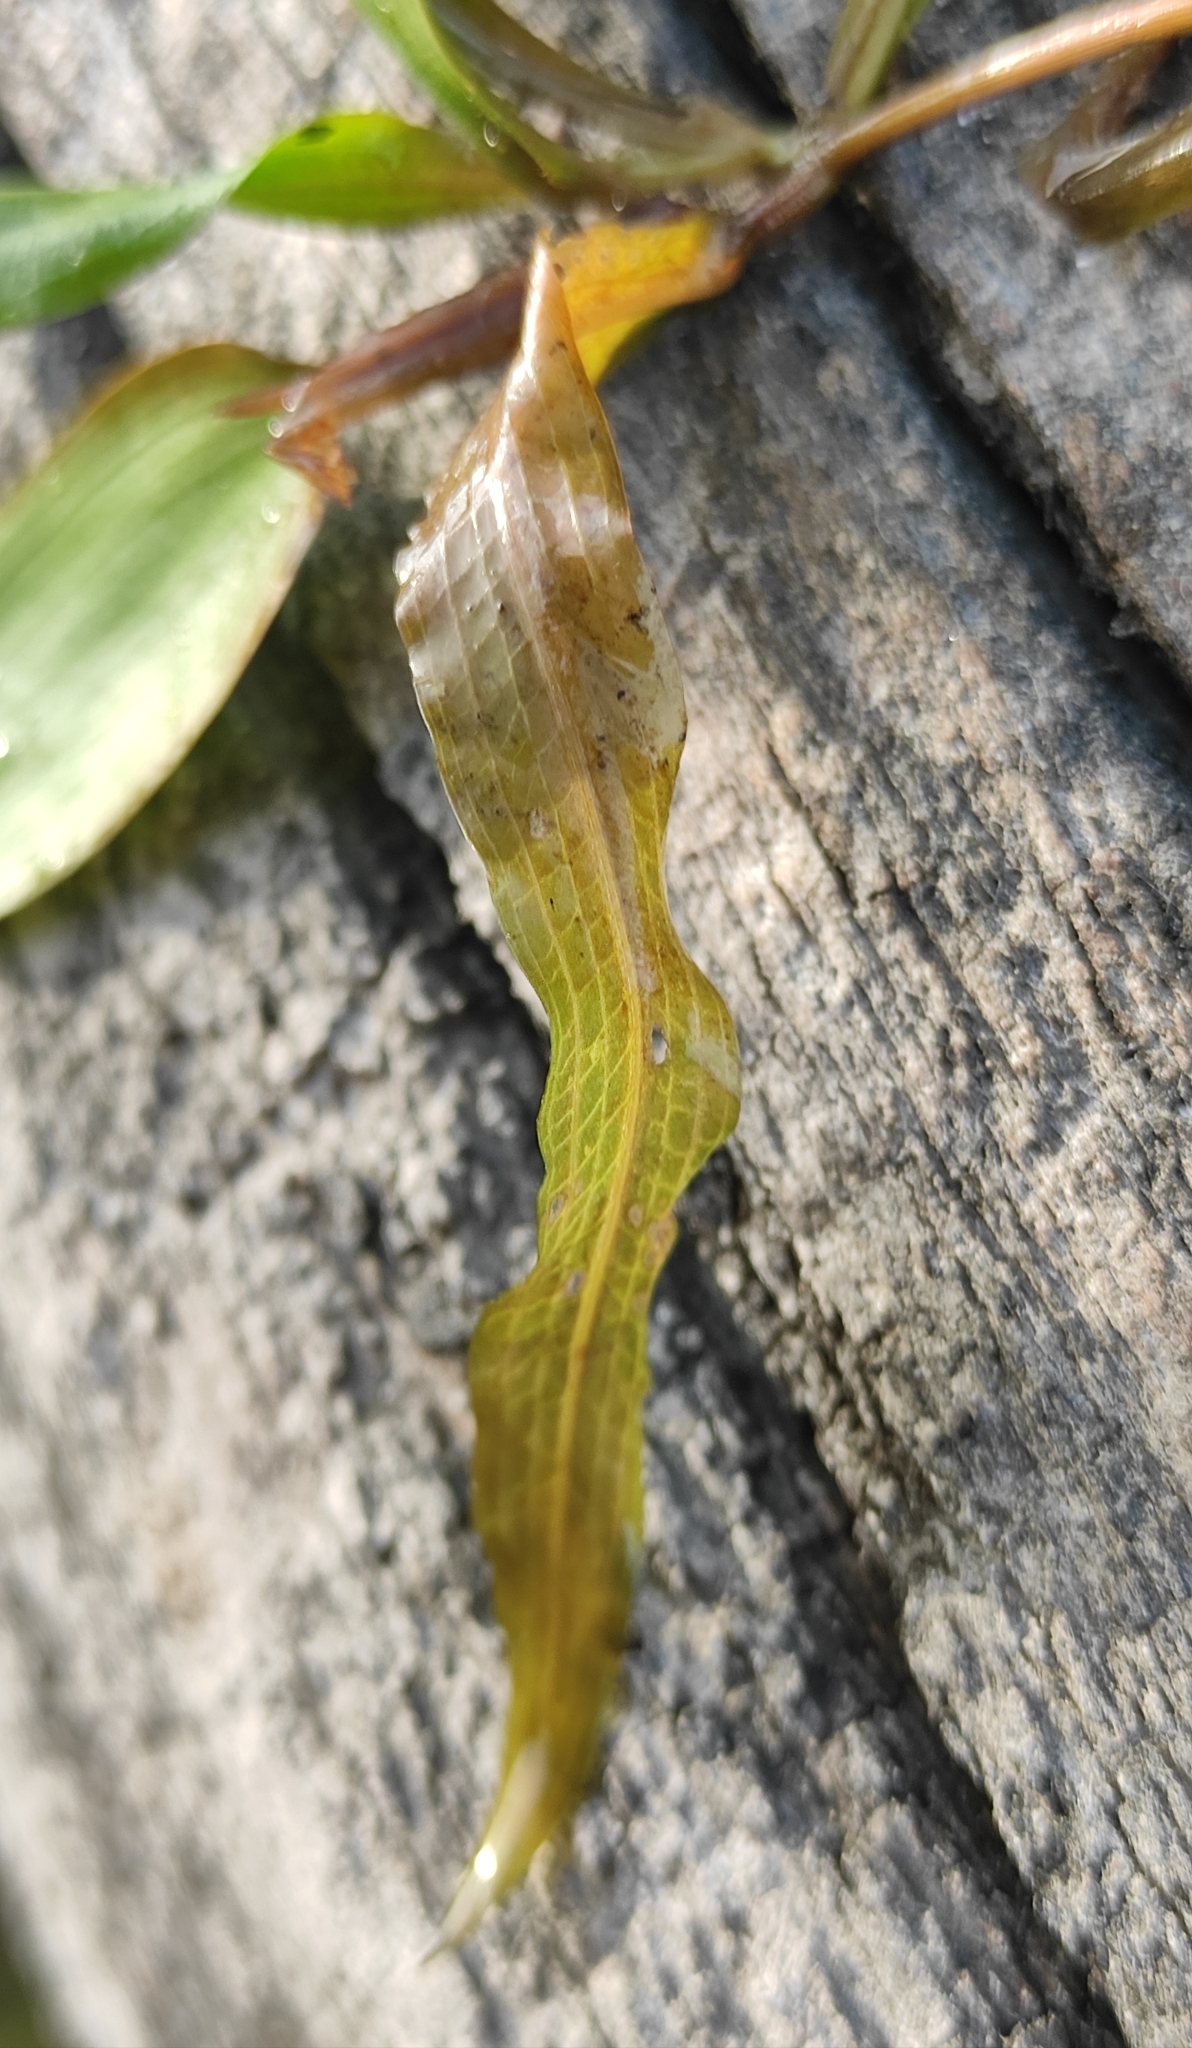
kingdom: Plantae
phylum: Tracheophyta
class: Liliopsida
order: Alismatales
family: Potamogetonaceae
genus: Potamogeton
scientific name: Potamogeton alpinus
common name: Red pondweed
